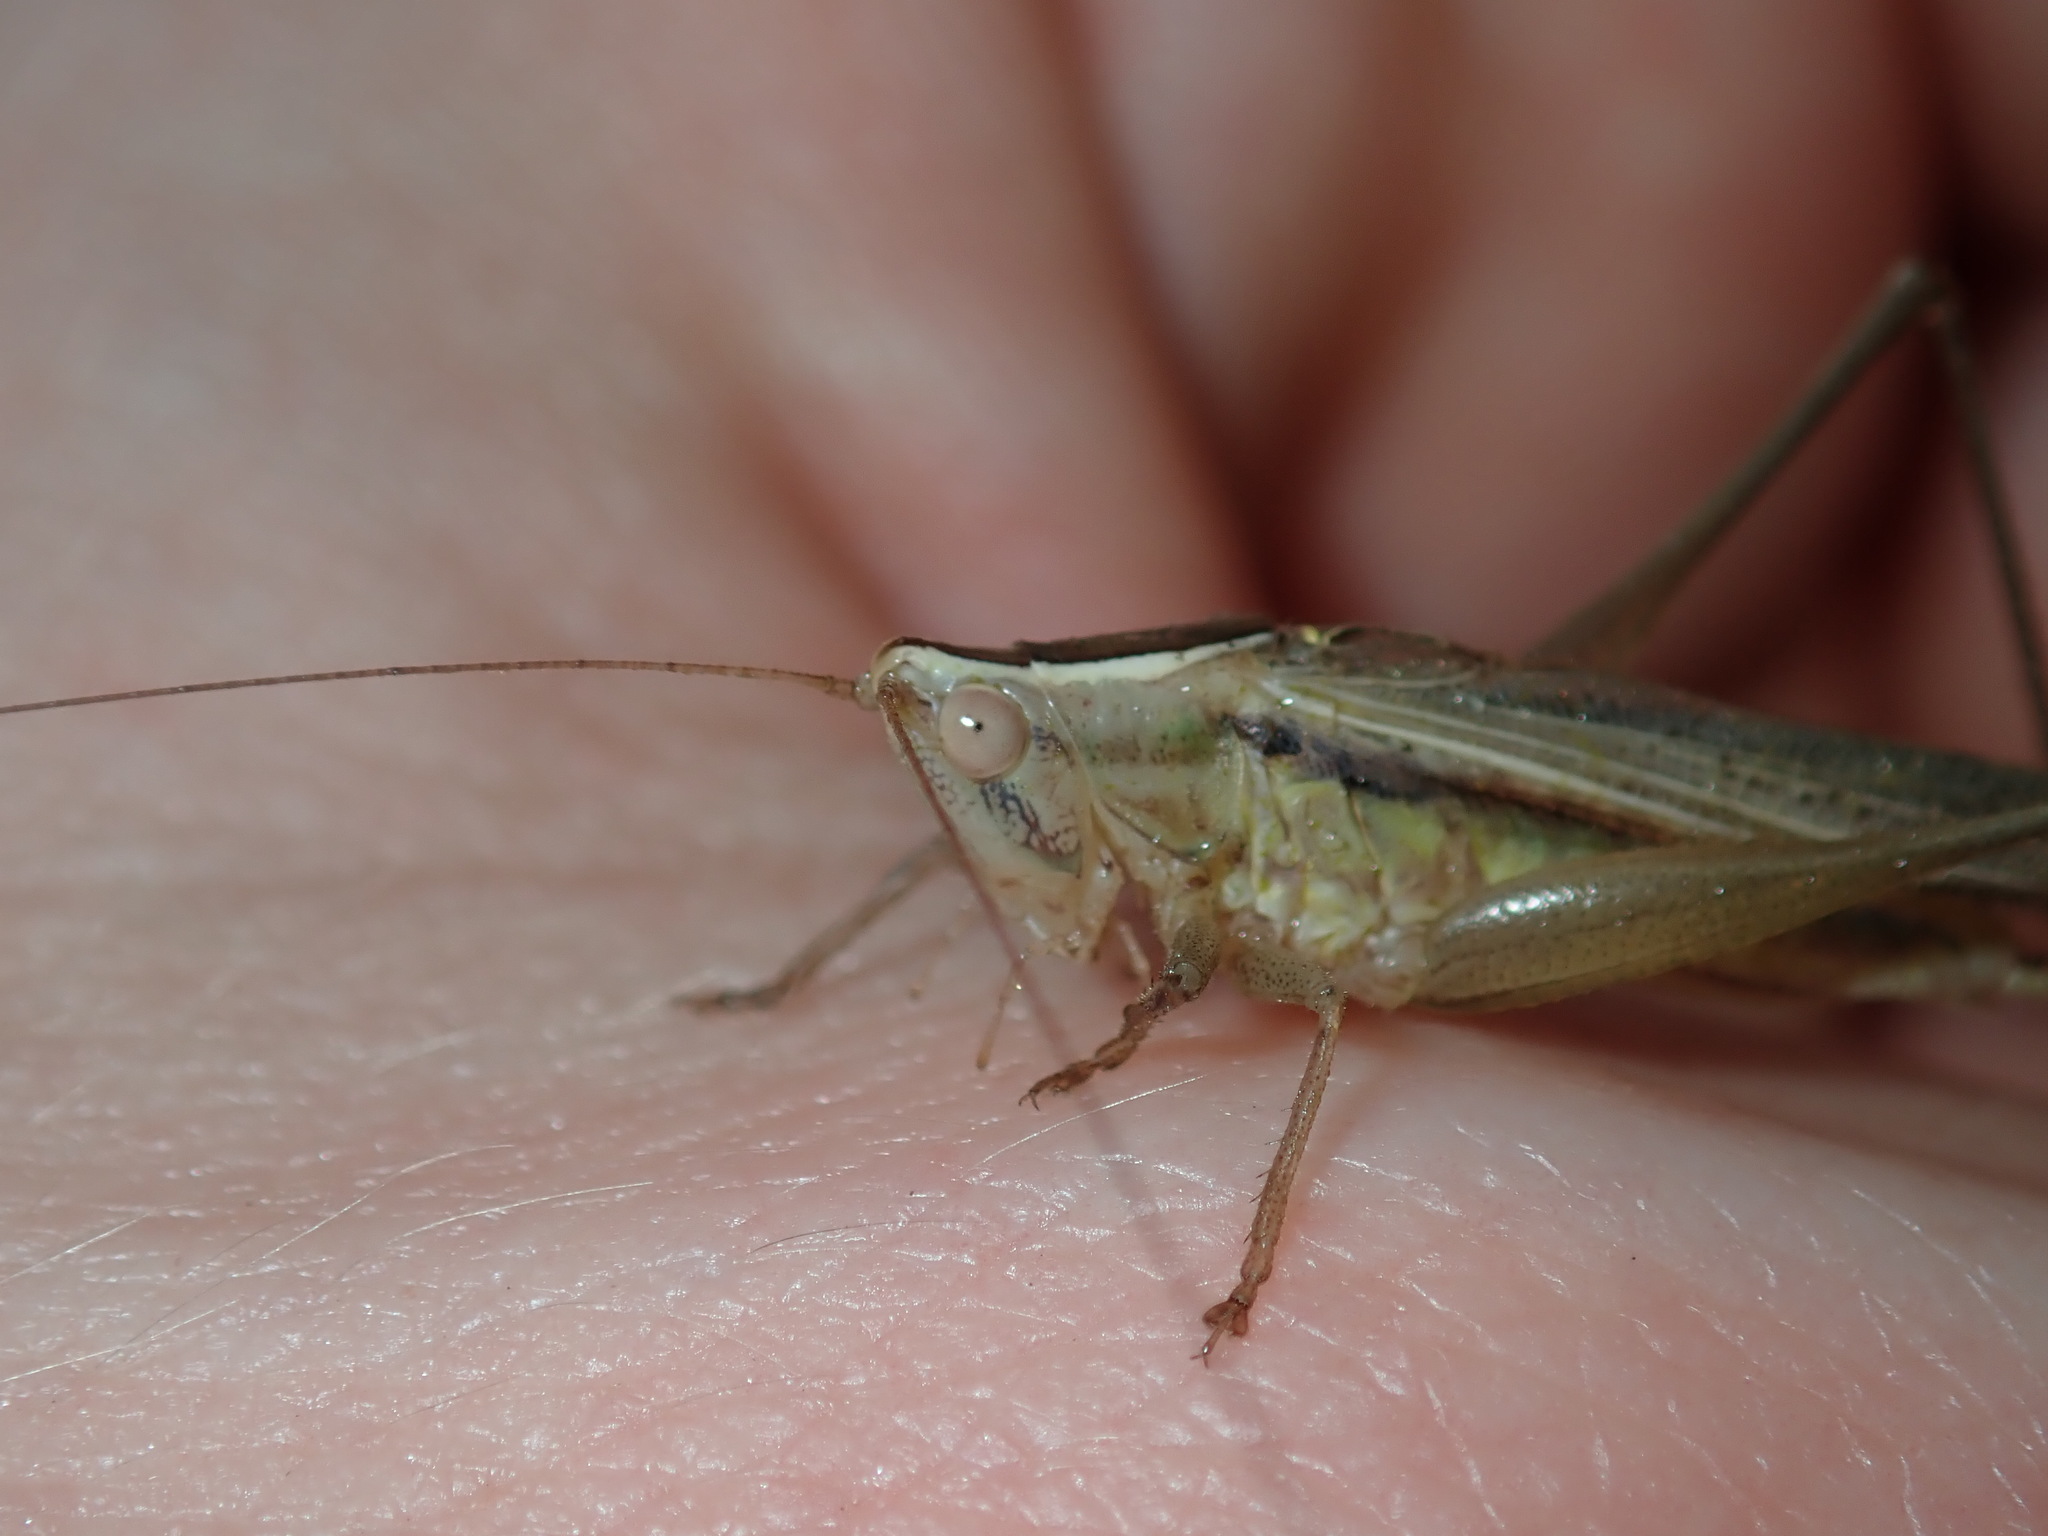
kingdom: Animalia
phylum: Arthropoda
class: Insecta
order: Orthoptera
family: Tettigoniidae
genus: Conocephalus
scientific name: Conocephalus upoluensis
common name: Upolu meadow katydid
